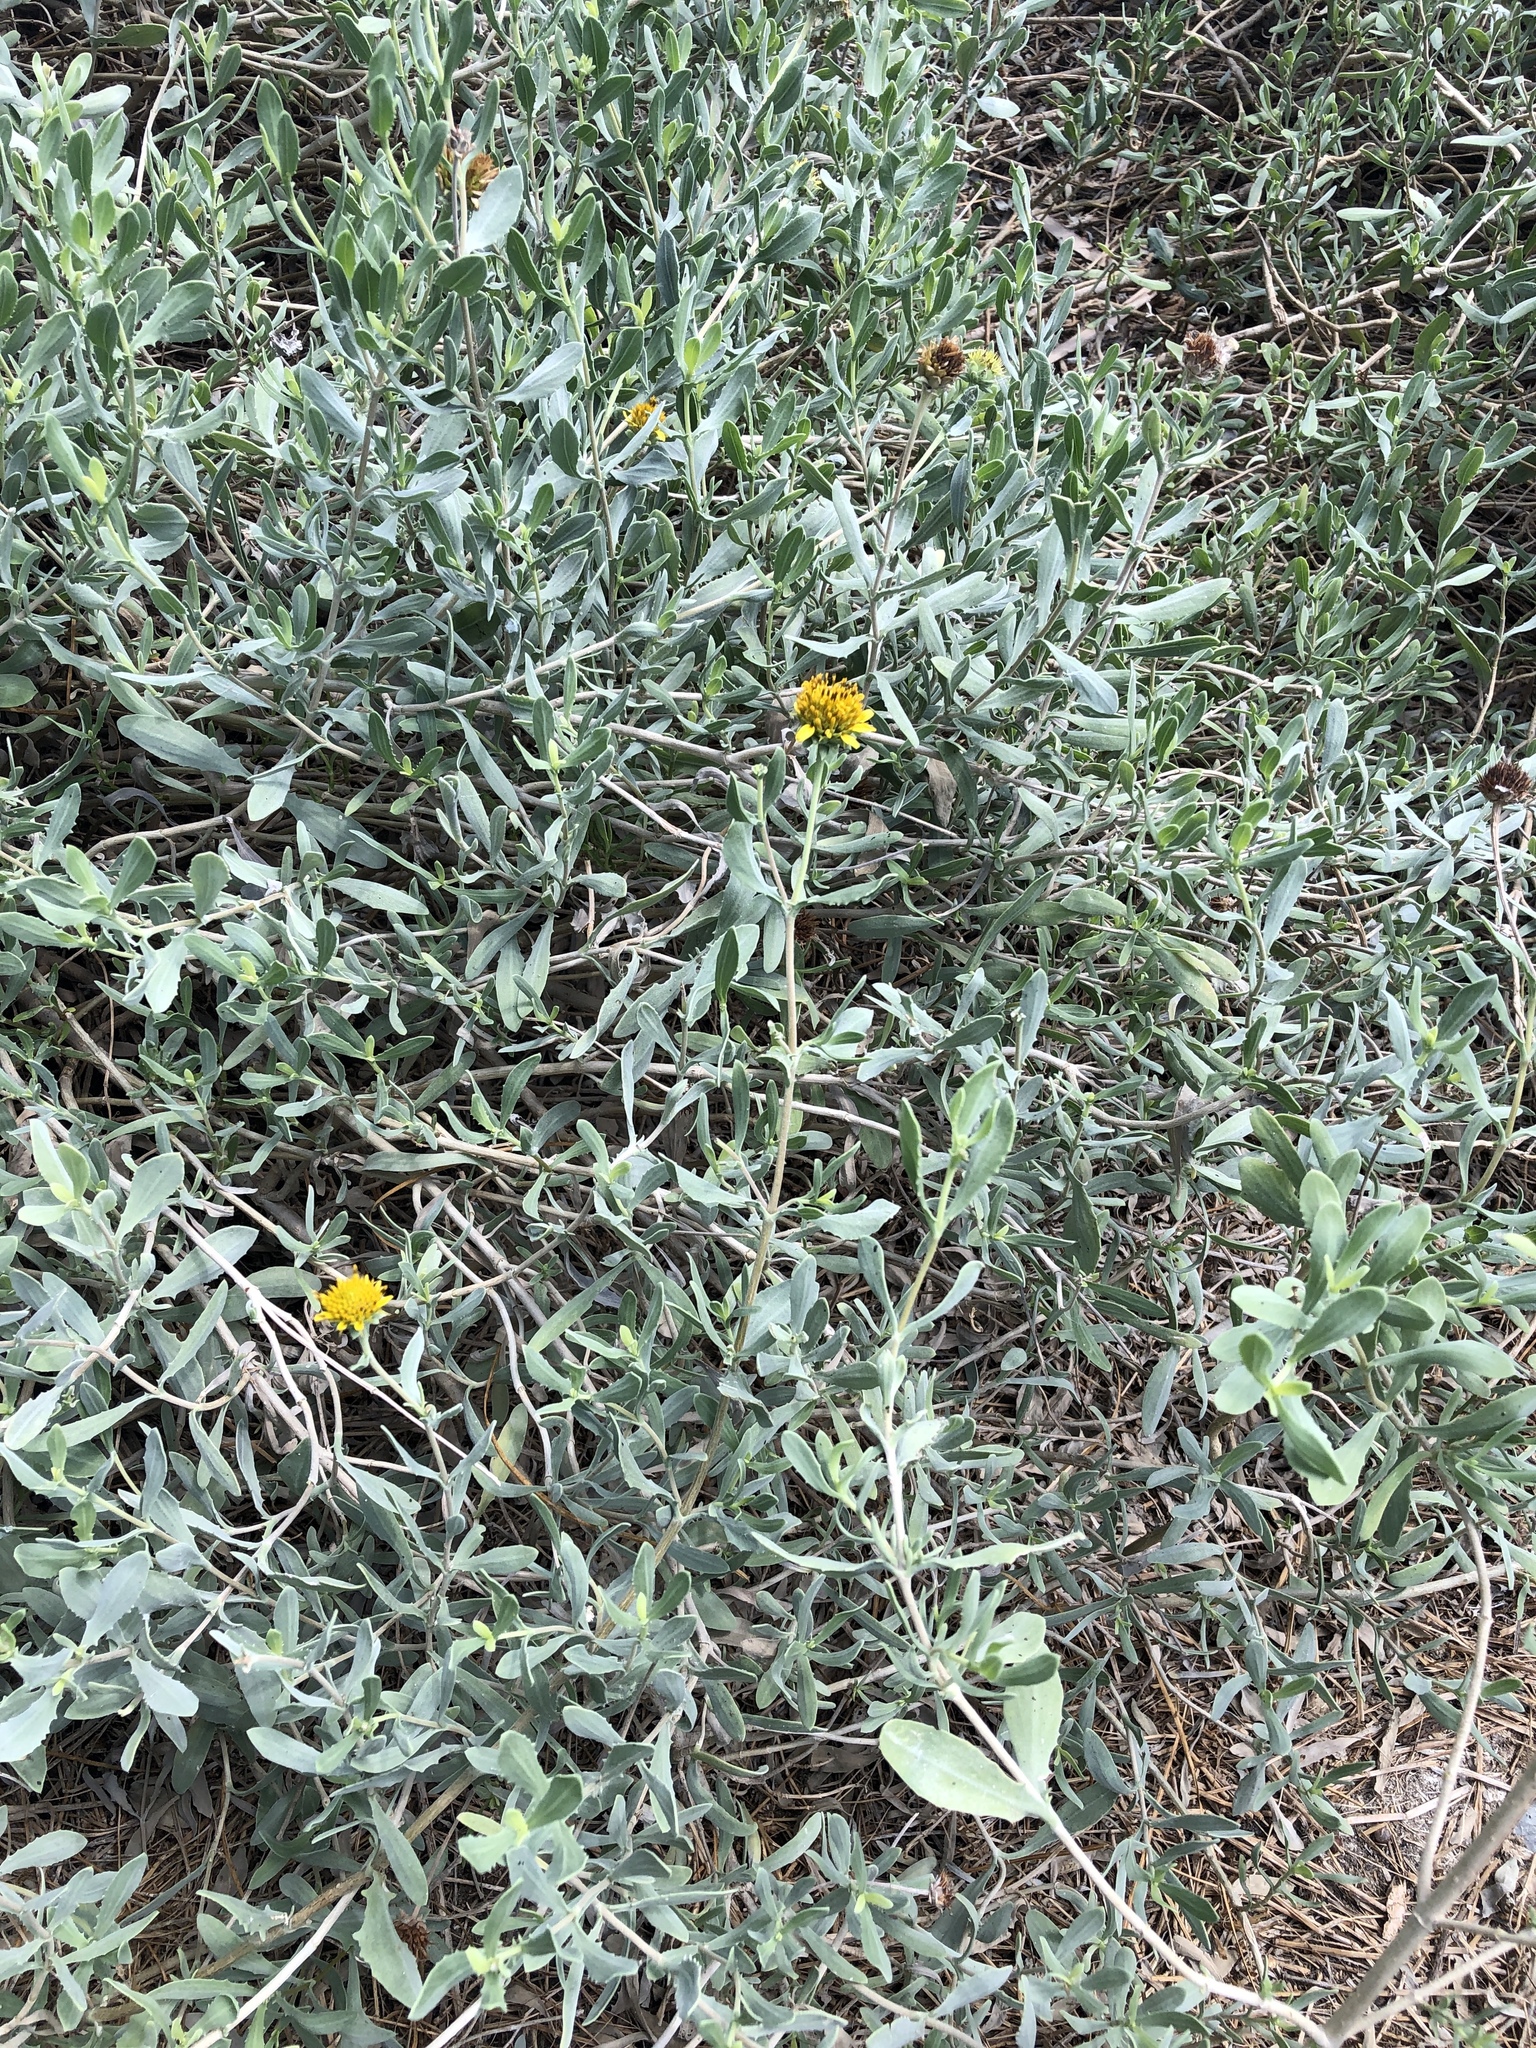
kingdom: Plantae
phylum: Tracheophyta
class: Magnoliopsida
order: Asterales
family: Asteraceae
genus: Borrichia
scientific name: Borrichia frutescens
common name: Sea oxeye
